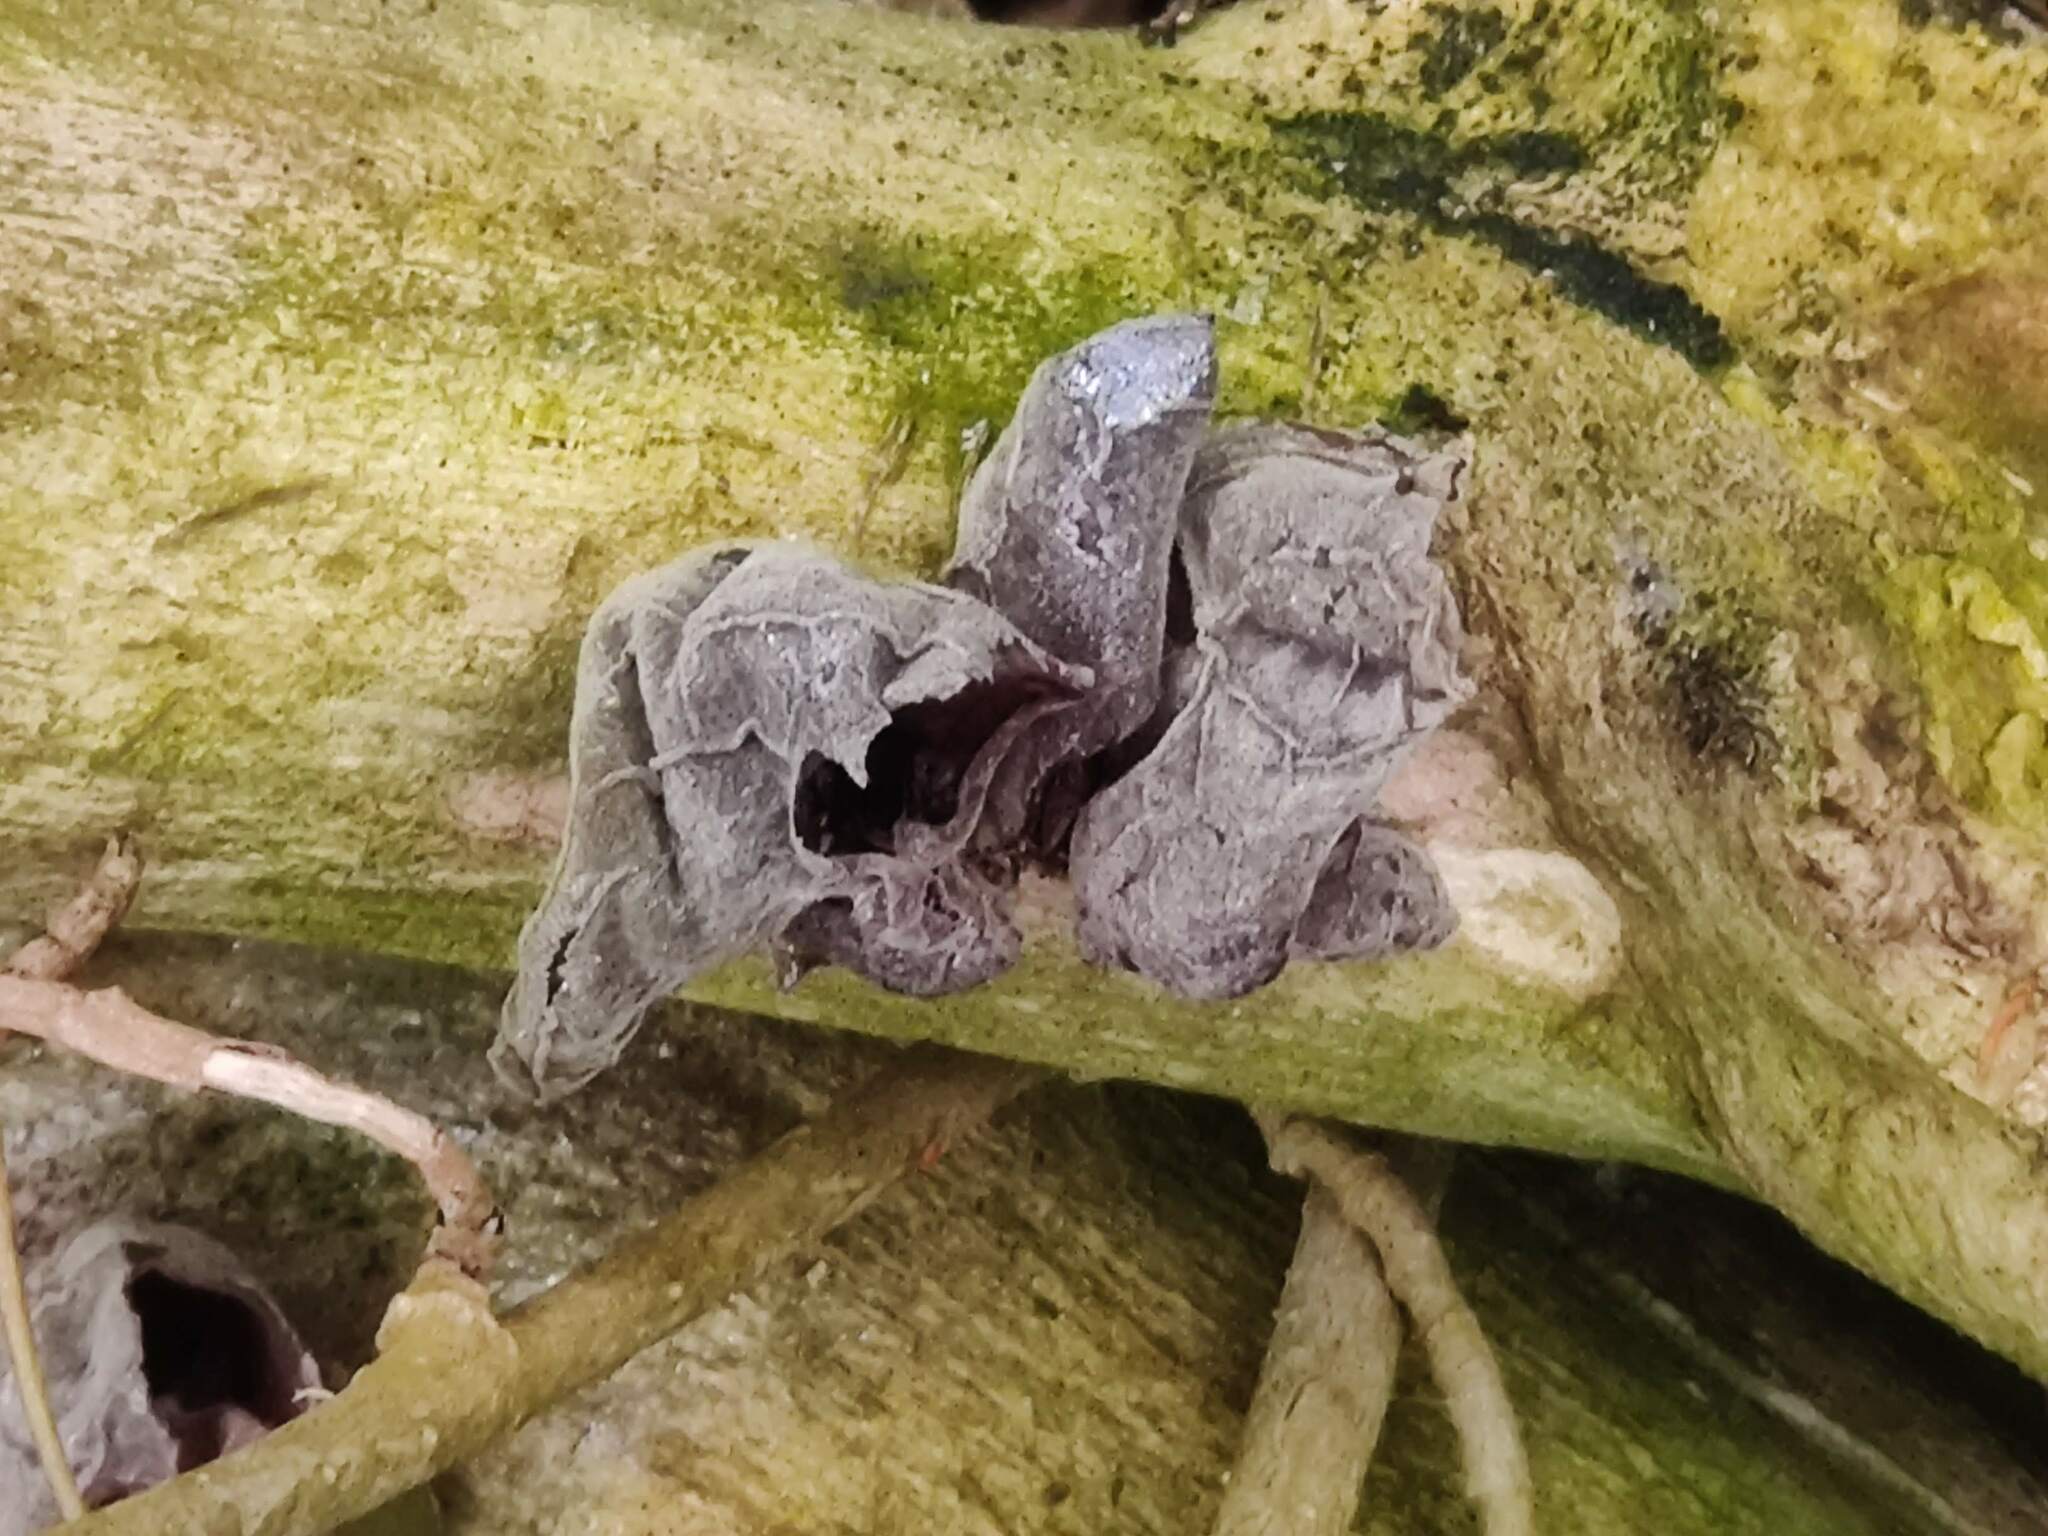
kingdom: Fungi
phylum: Basidiomycota
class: Agaricomycetes
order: Auriculariales
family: Auriculariaceae
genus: Auricularia
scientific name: Auricularia auricula-judae
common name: Jelly ear
